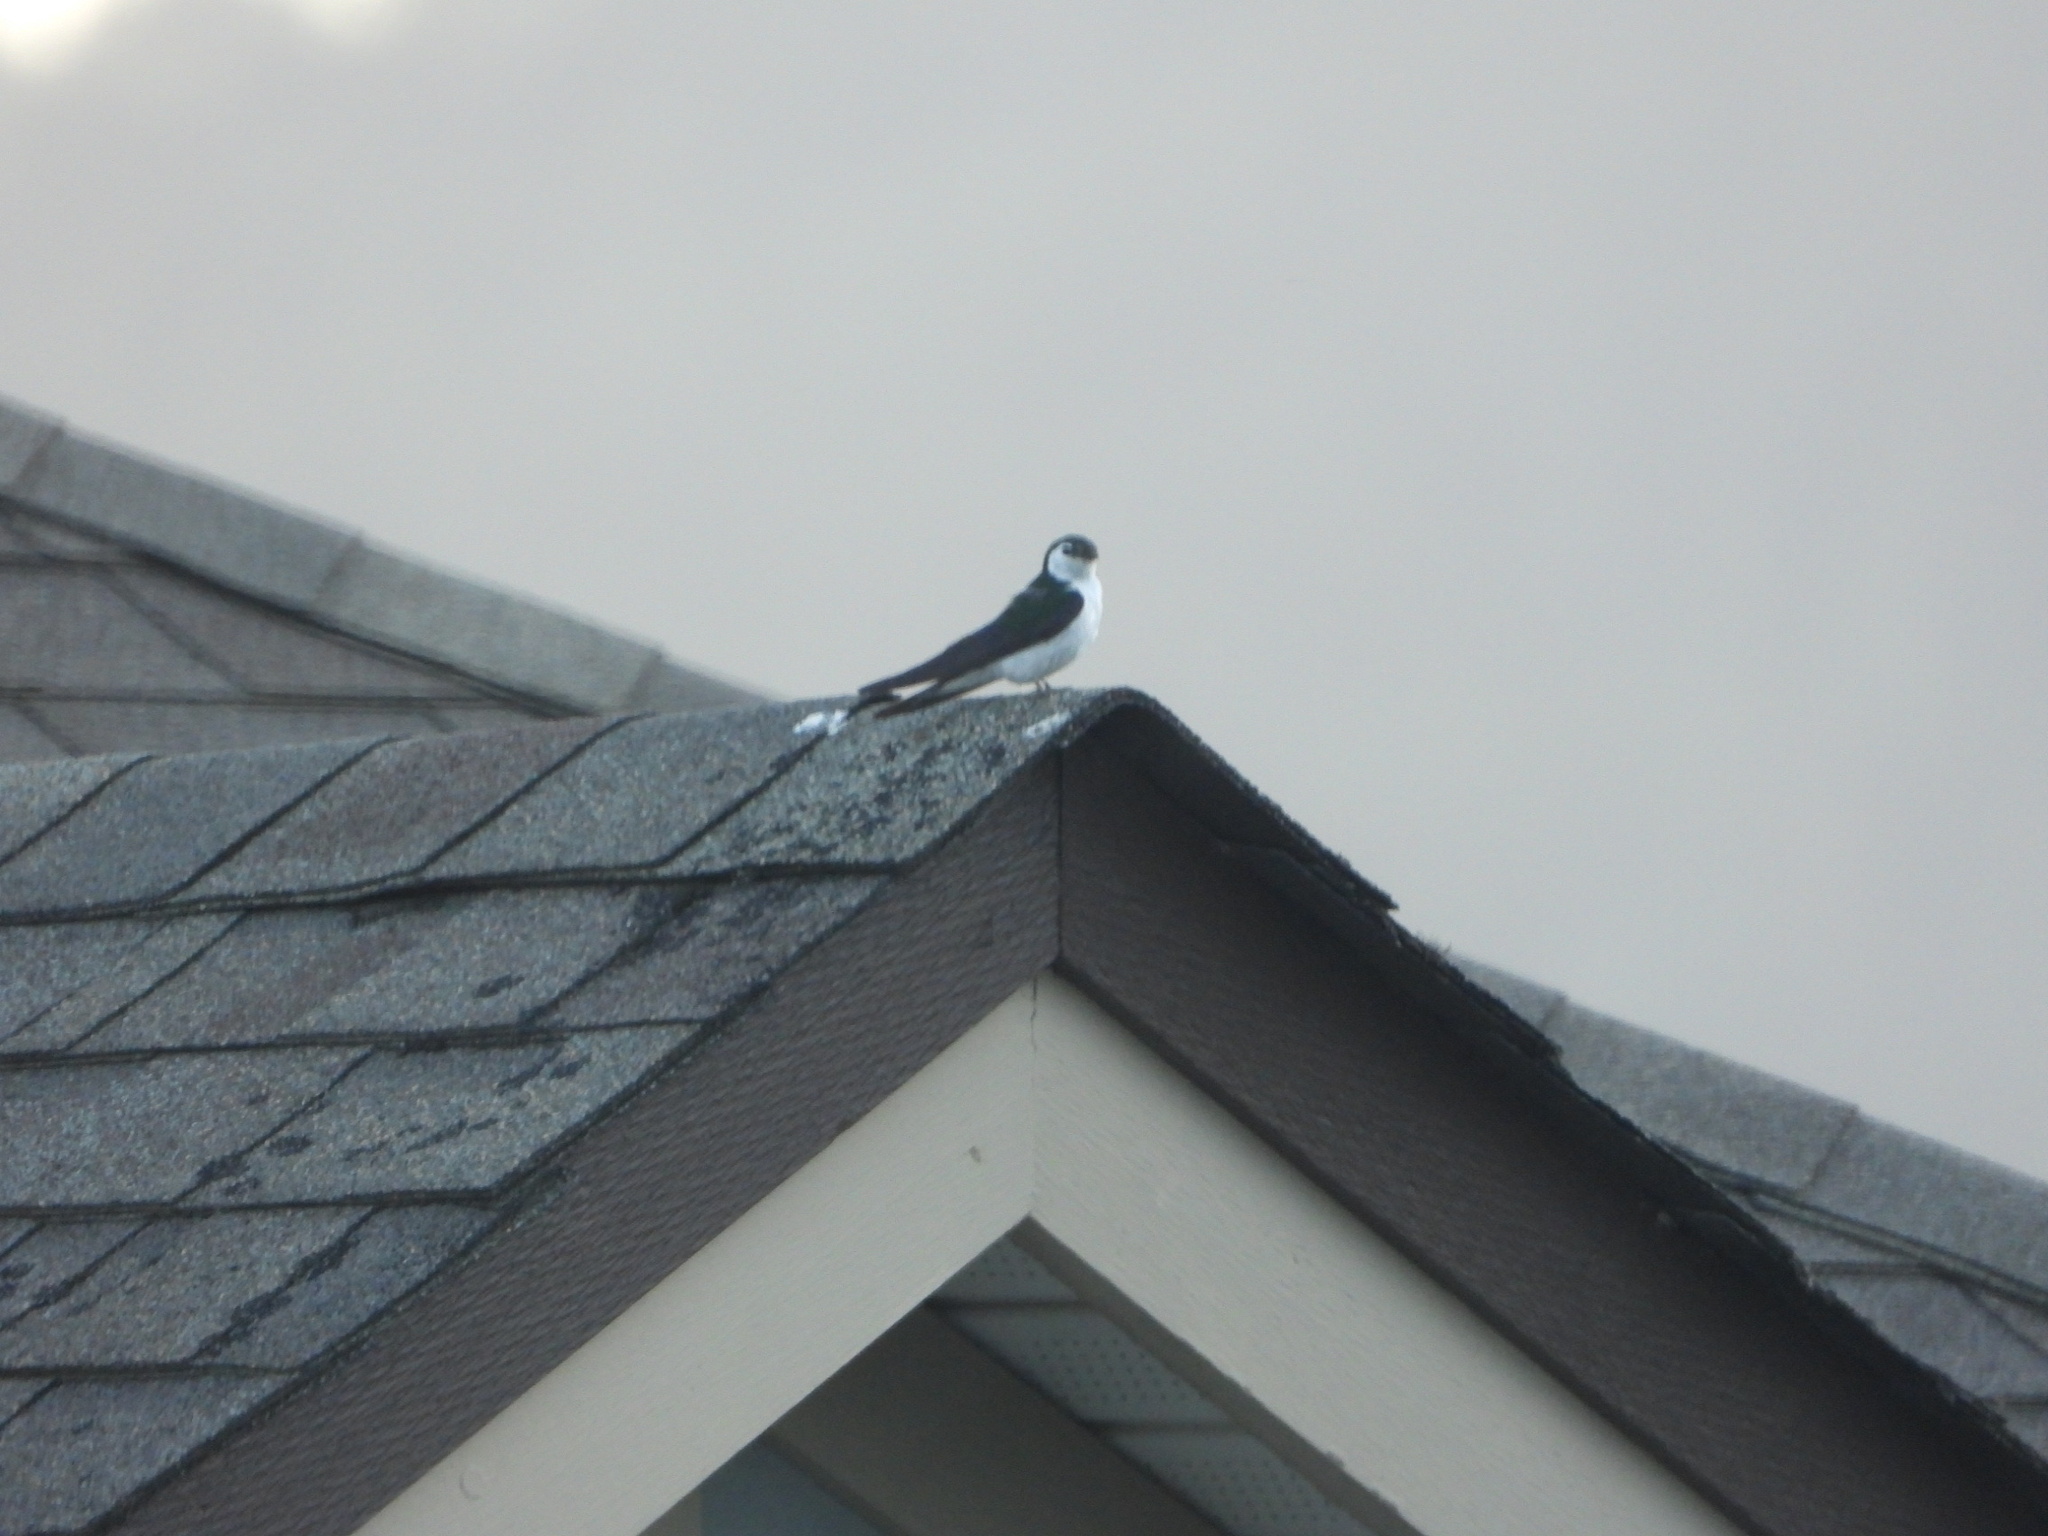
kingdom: Animalia
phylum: Chordata
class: Aves
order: Passeriformes
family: Hirundinidae
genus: Tachycineta
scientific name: Tachycineta thalassina
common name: Violet-green swallow
